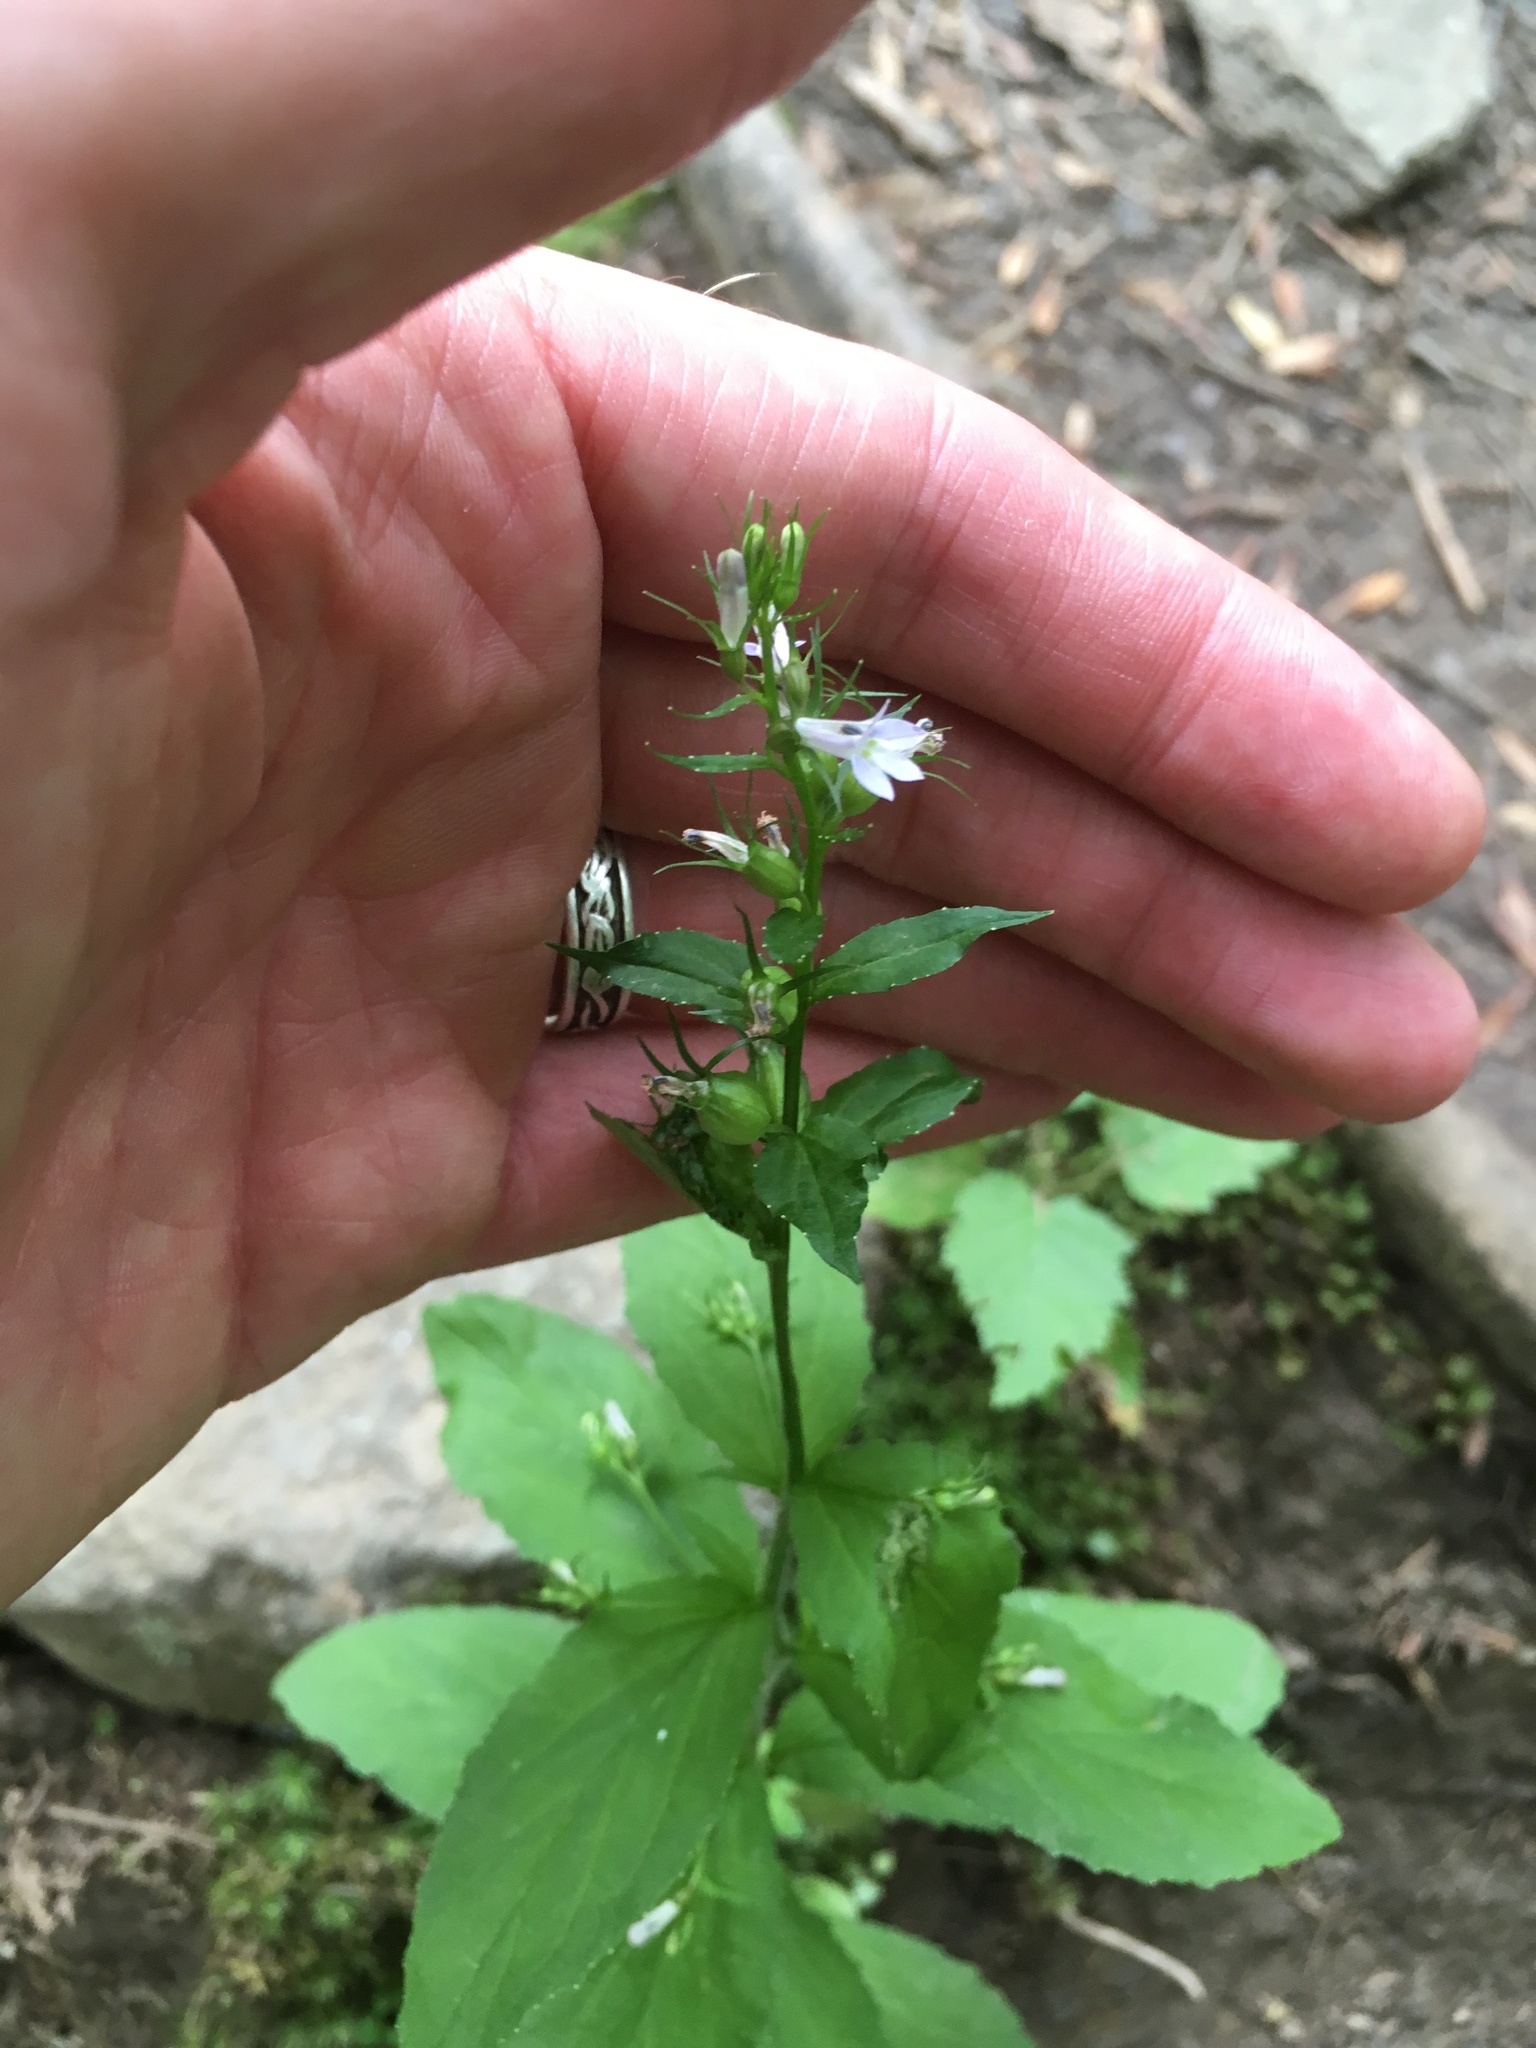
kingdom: Plantae
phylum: Tracheophyta
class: Magnoliopsida
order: Asterales
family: Campanulaceae
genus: Lobelia
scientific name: Lobelia inflata
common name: Indian tobacco
